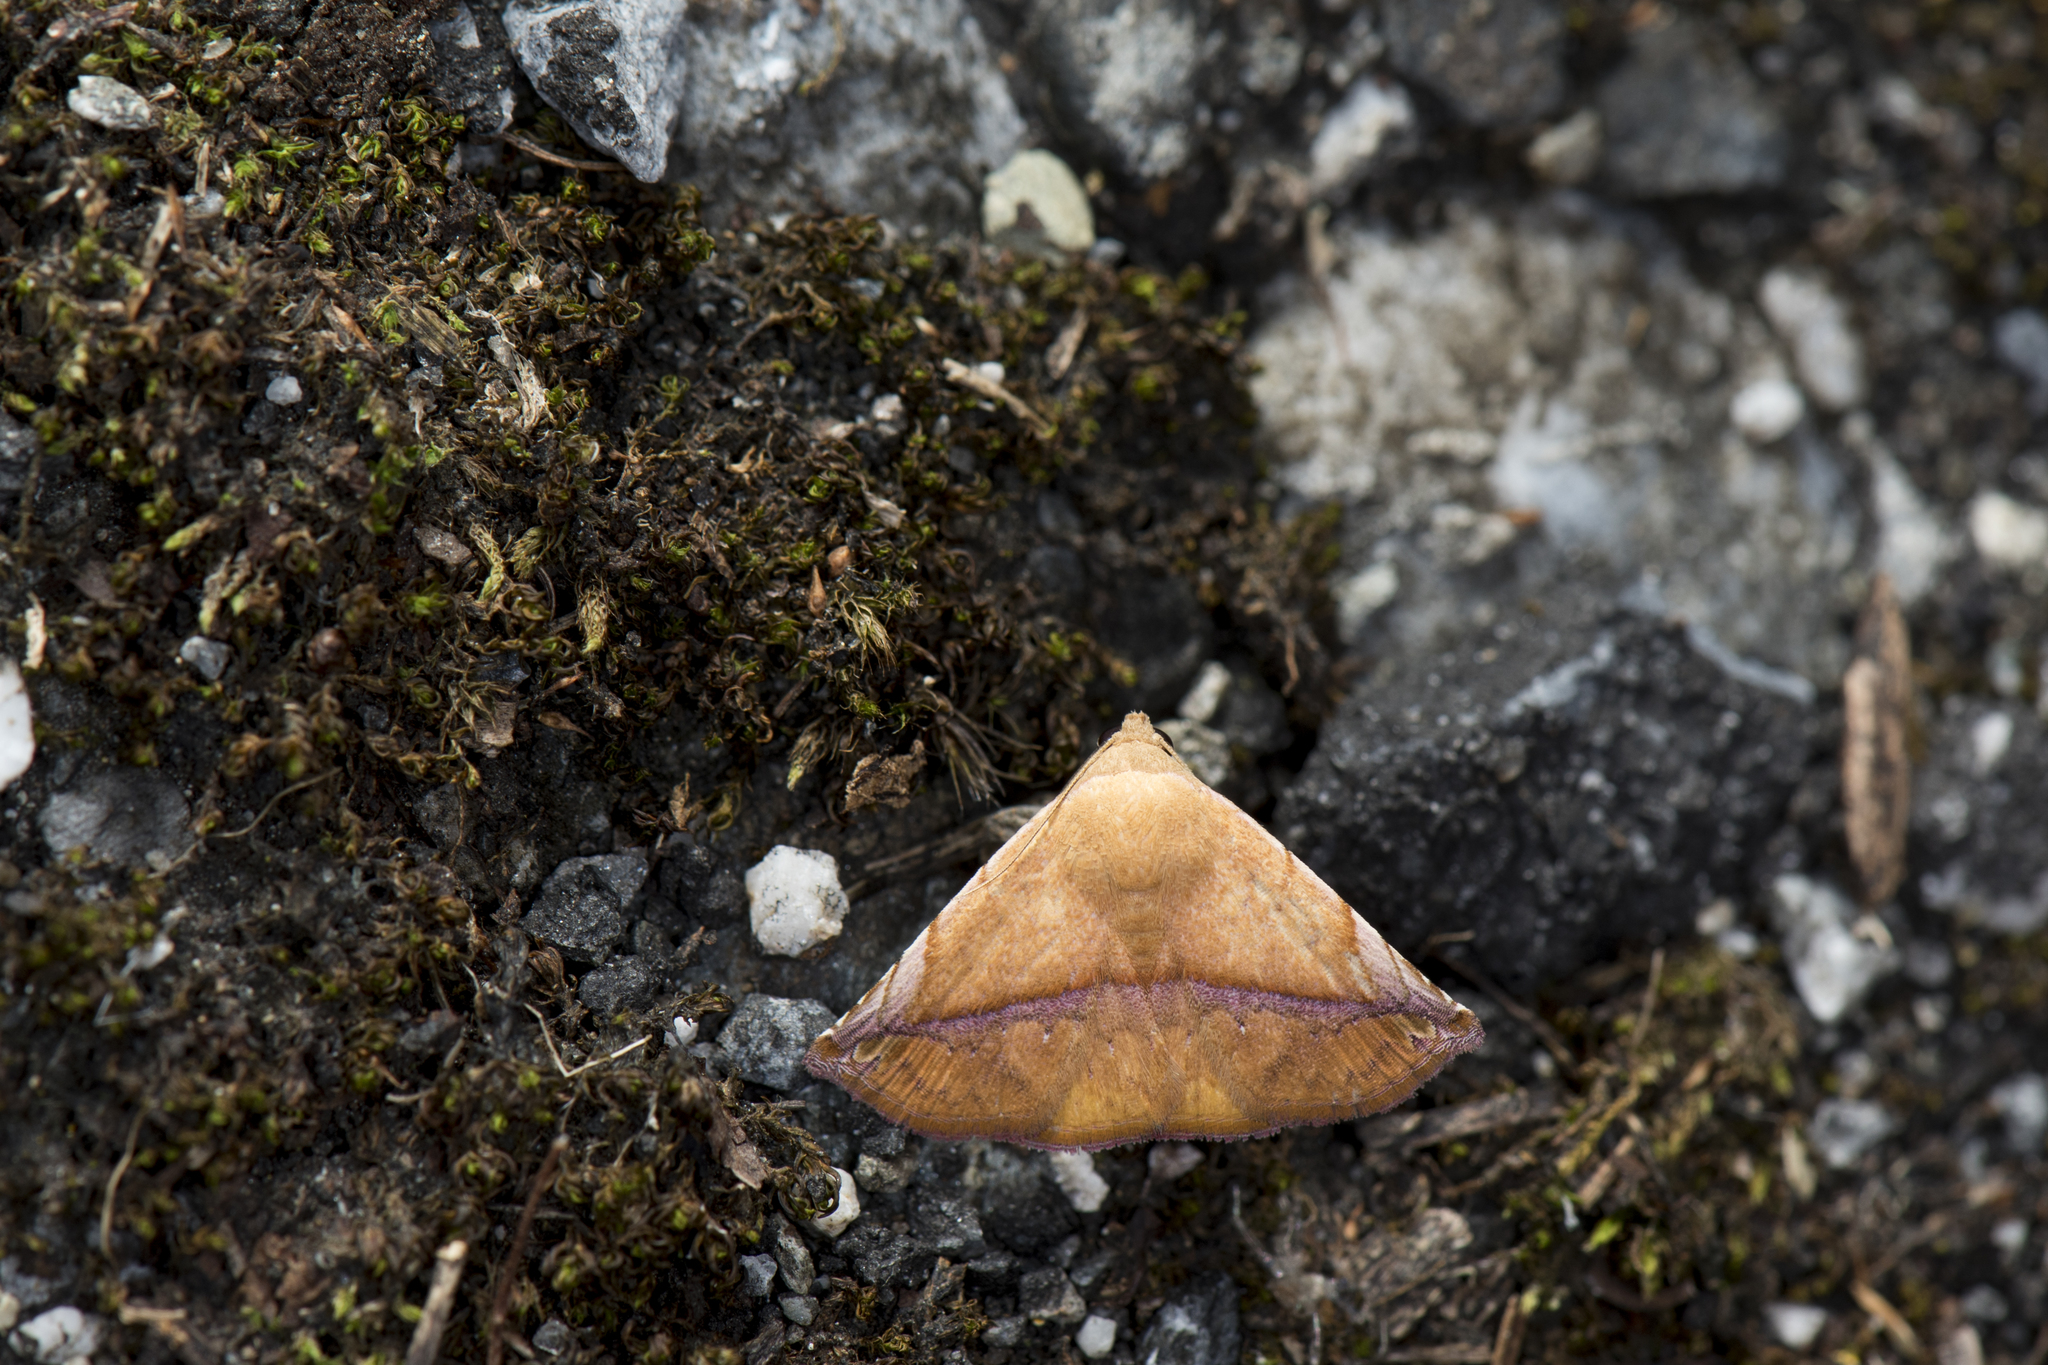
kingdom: Animalia
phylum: Arthropoda
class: Insecta
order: Lepidoptera
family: Noctuidae
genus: Autoba
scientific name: Autoba quadrapex
